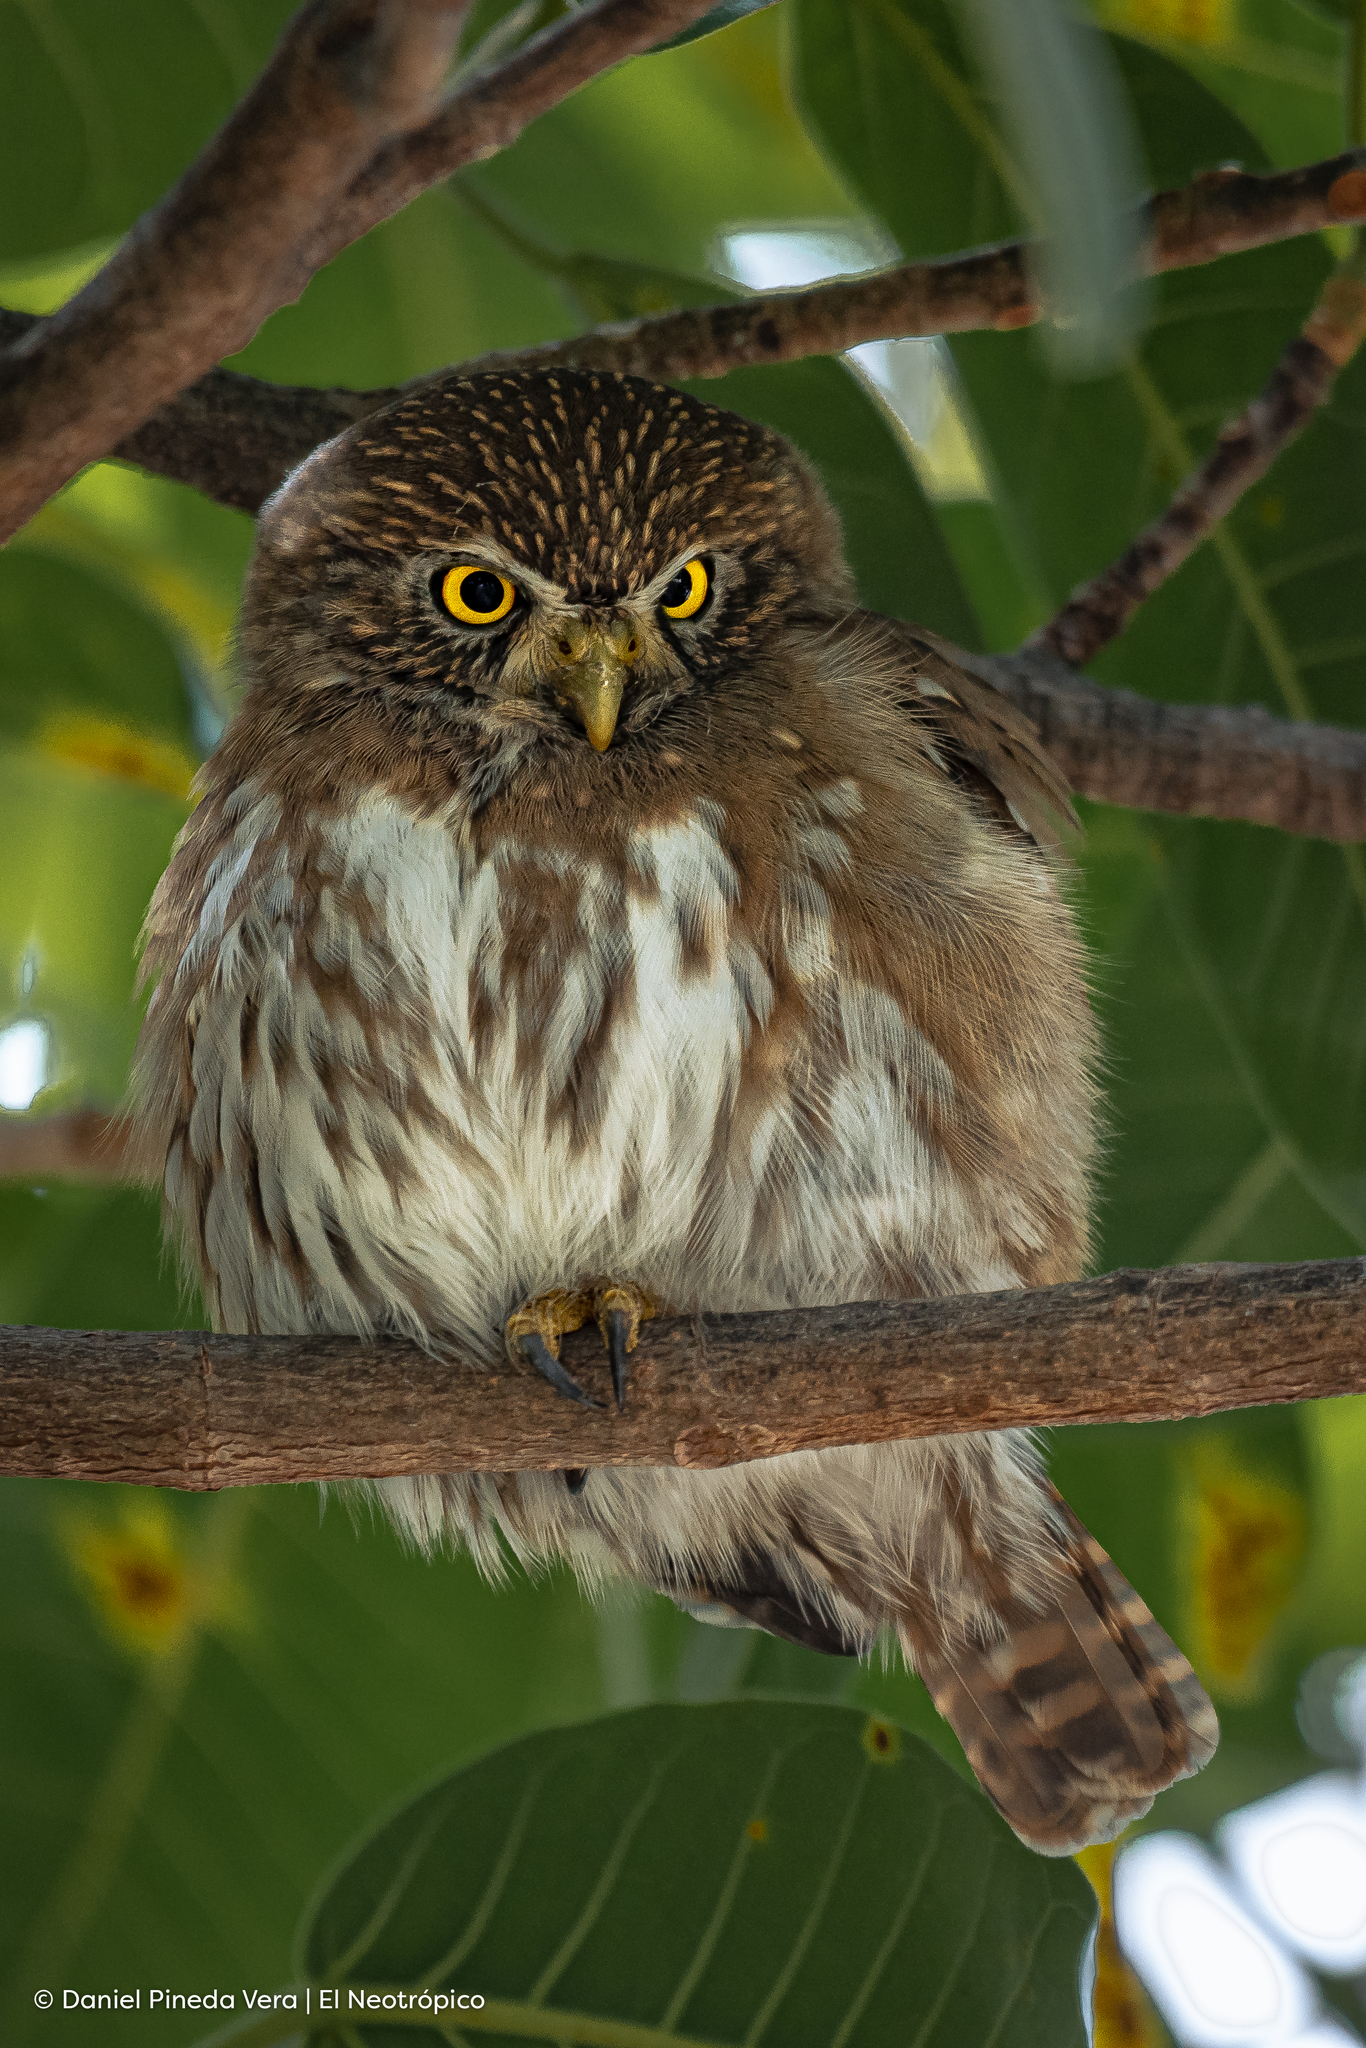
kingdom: Animalia
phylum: Chordata
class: Aves
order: Strigiformes
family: Strigidae
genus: Glaucidium
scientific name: Glaucidium brasilianum
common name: Ferruginous pygmy-owl
